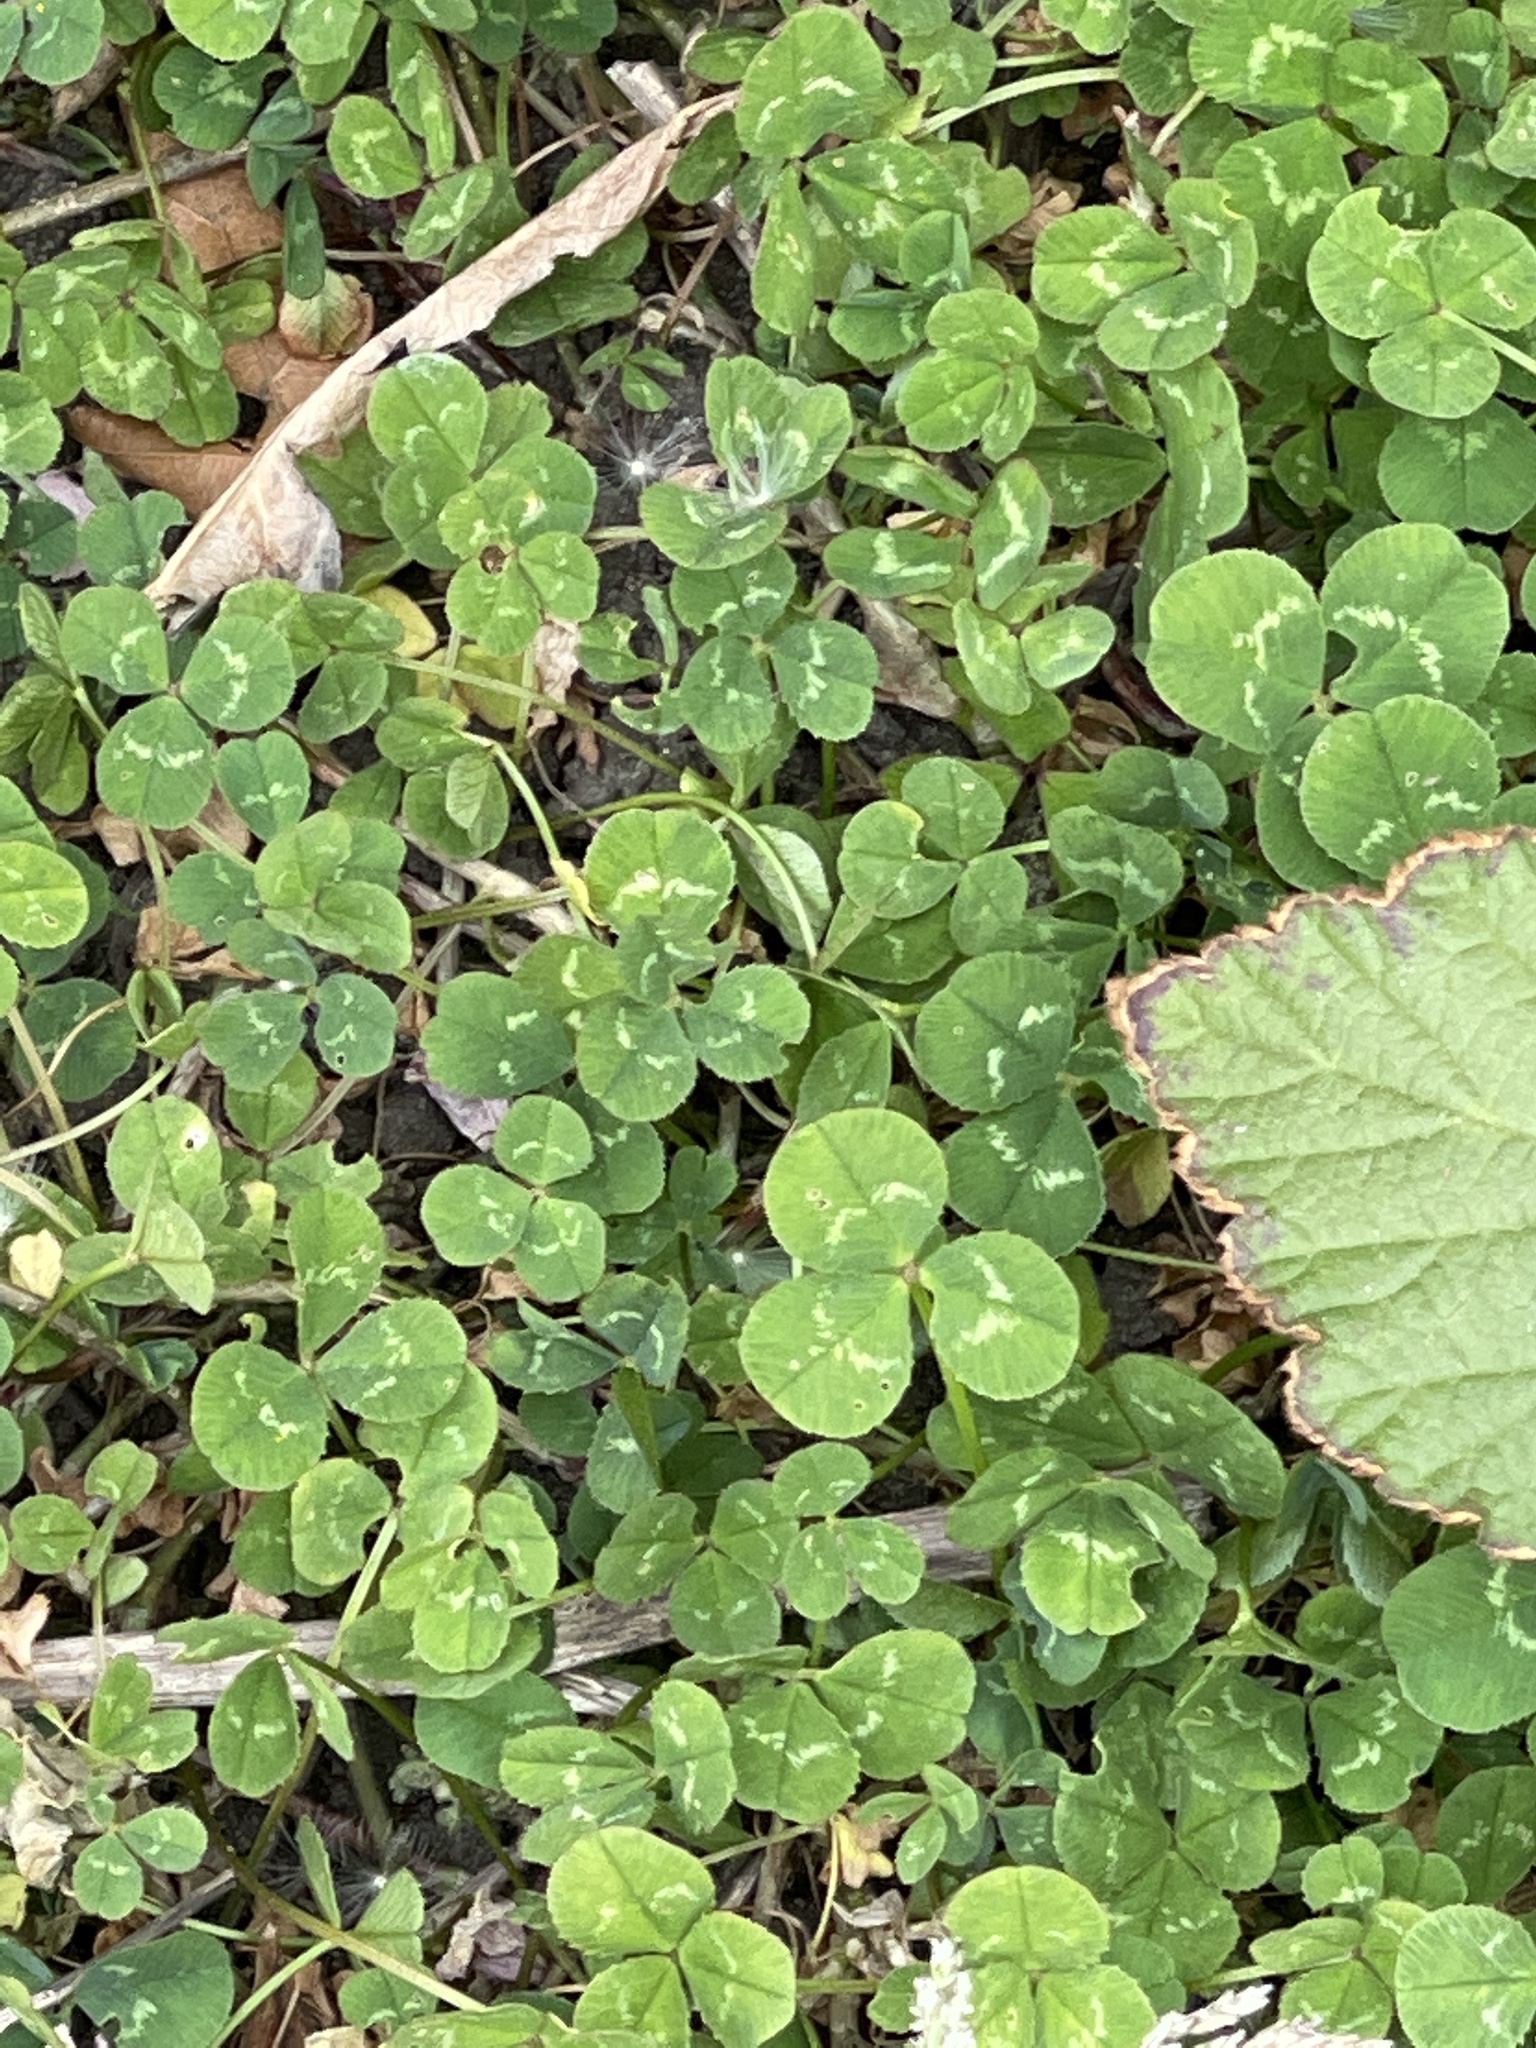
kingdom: Plantae
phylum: Tracheophyta
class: Magnoliopsida
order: Fabales
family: Fabaceae
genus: Trifolium
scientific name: Trifolium repens
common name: White clover
